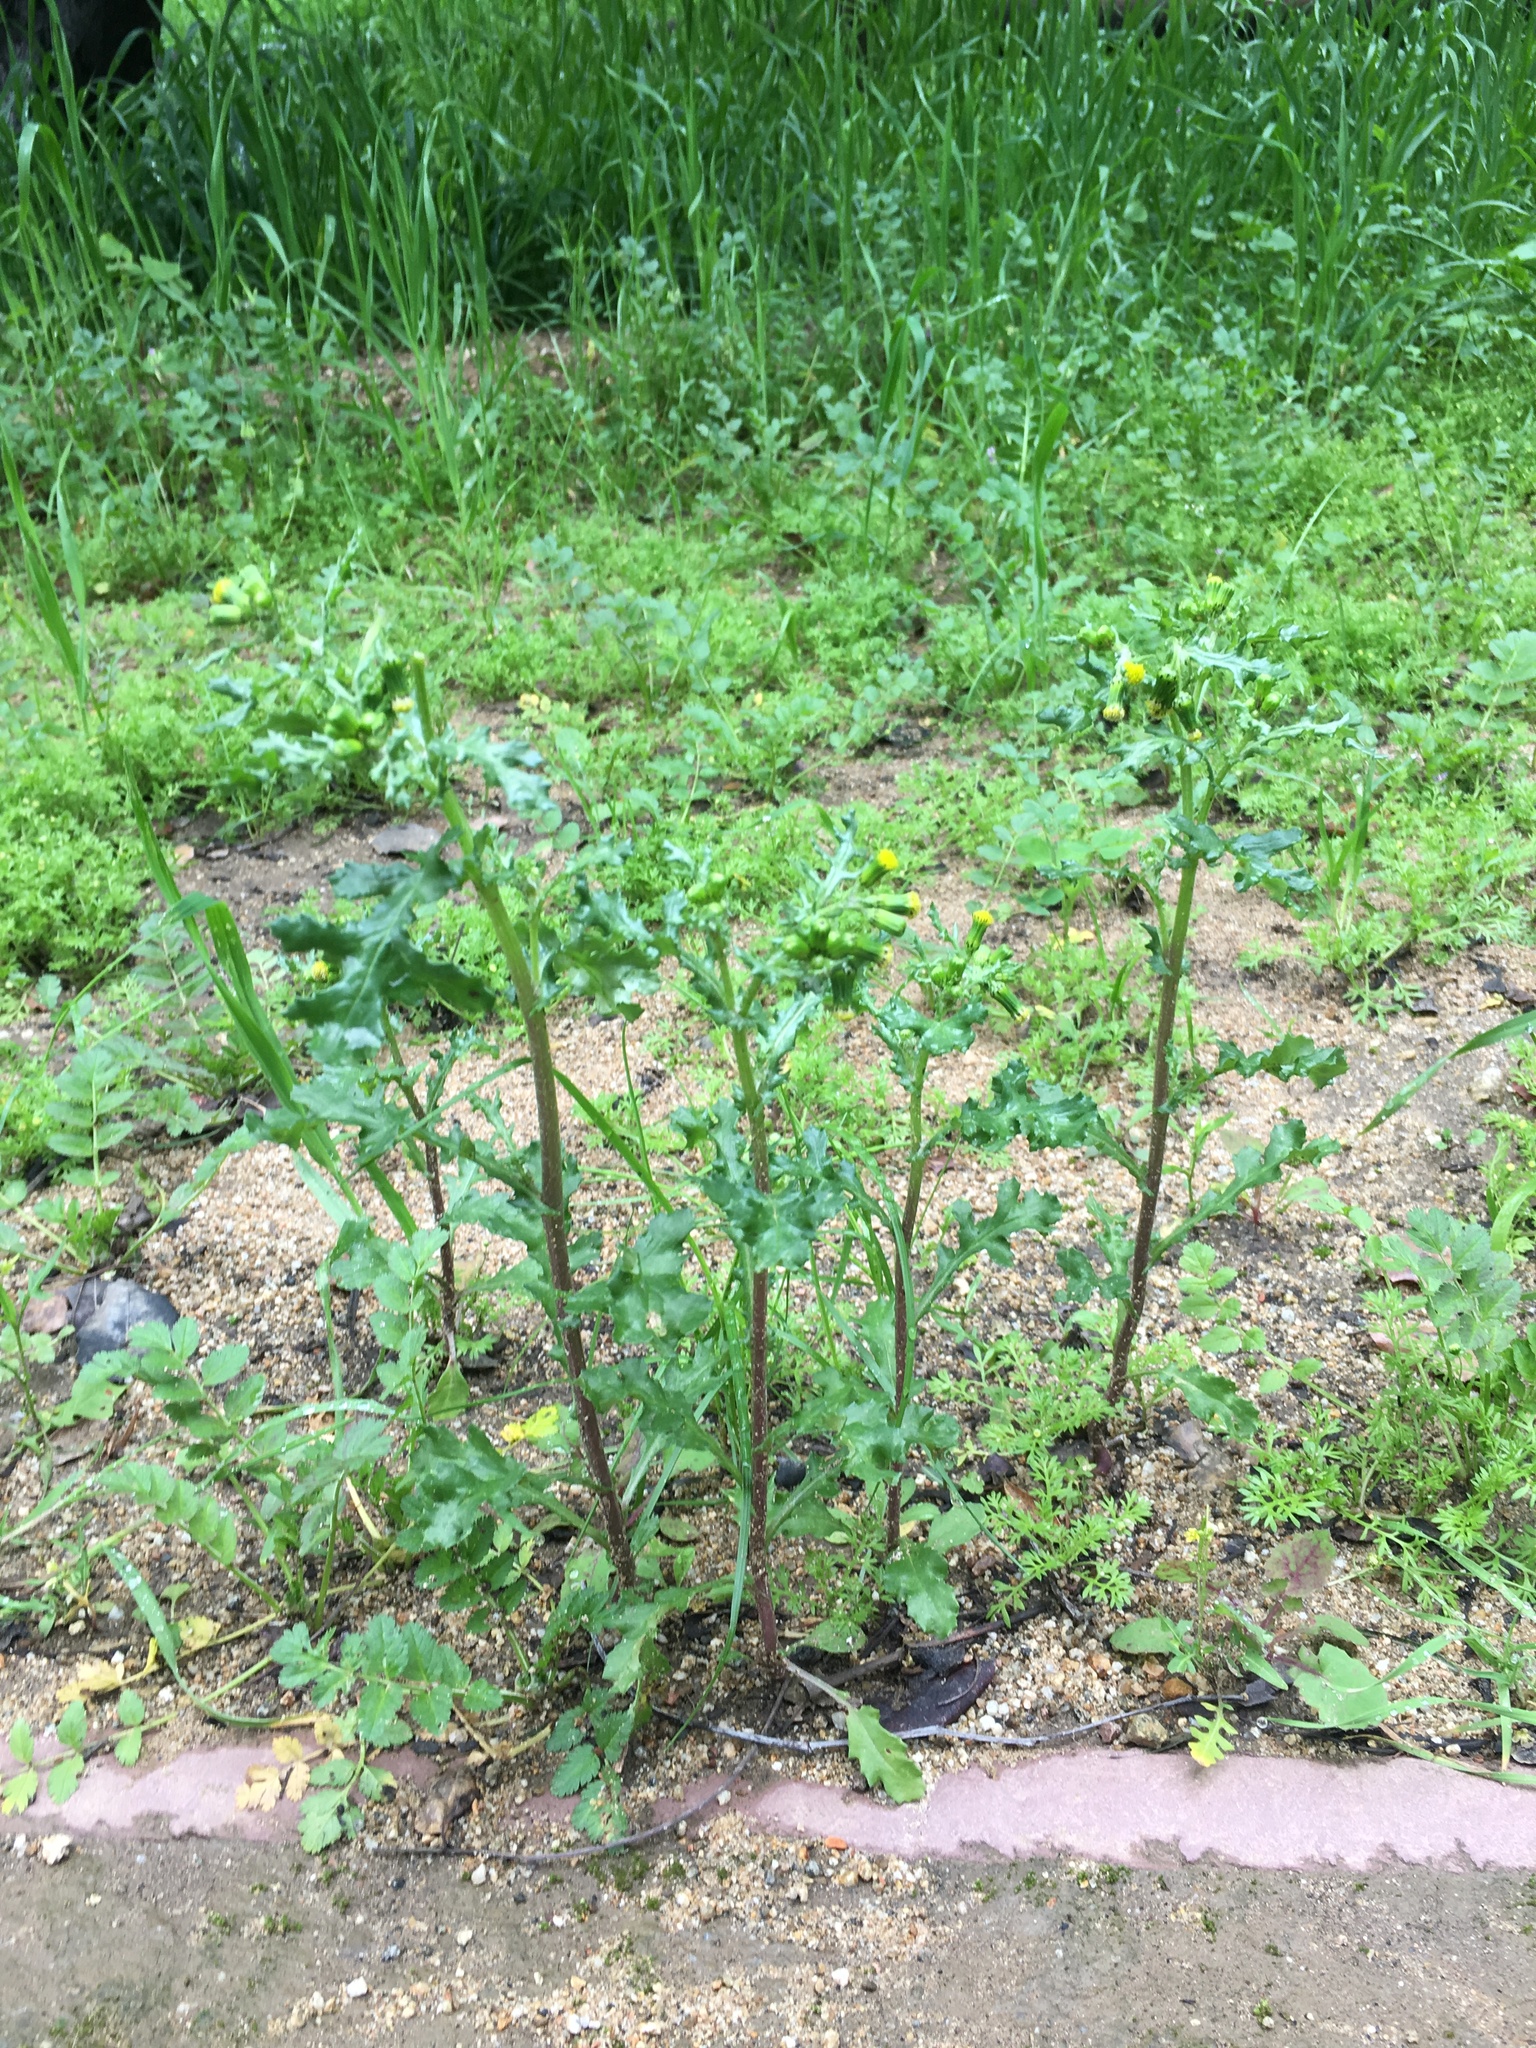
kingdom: Plantae
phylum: Tracheophyta
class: Magnoliopsida
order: Asterales
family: Asteraceae
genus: Senecio
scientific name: Senecio vulgaris
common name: Old-man-in-the-spring
